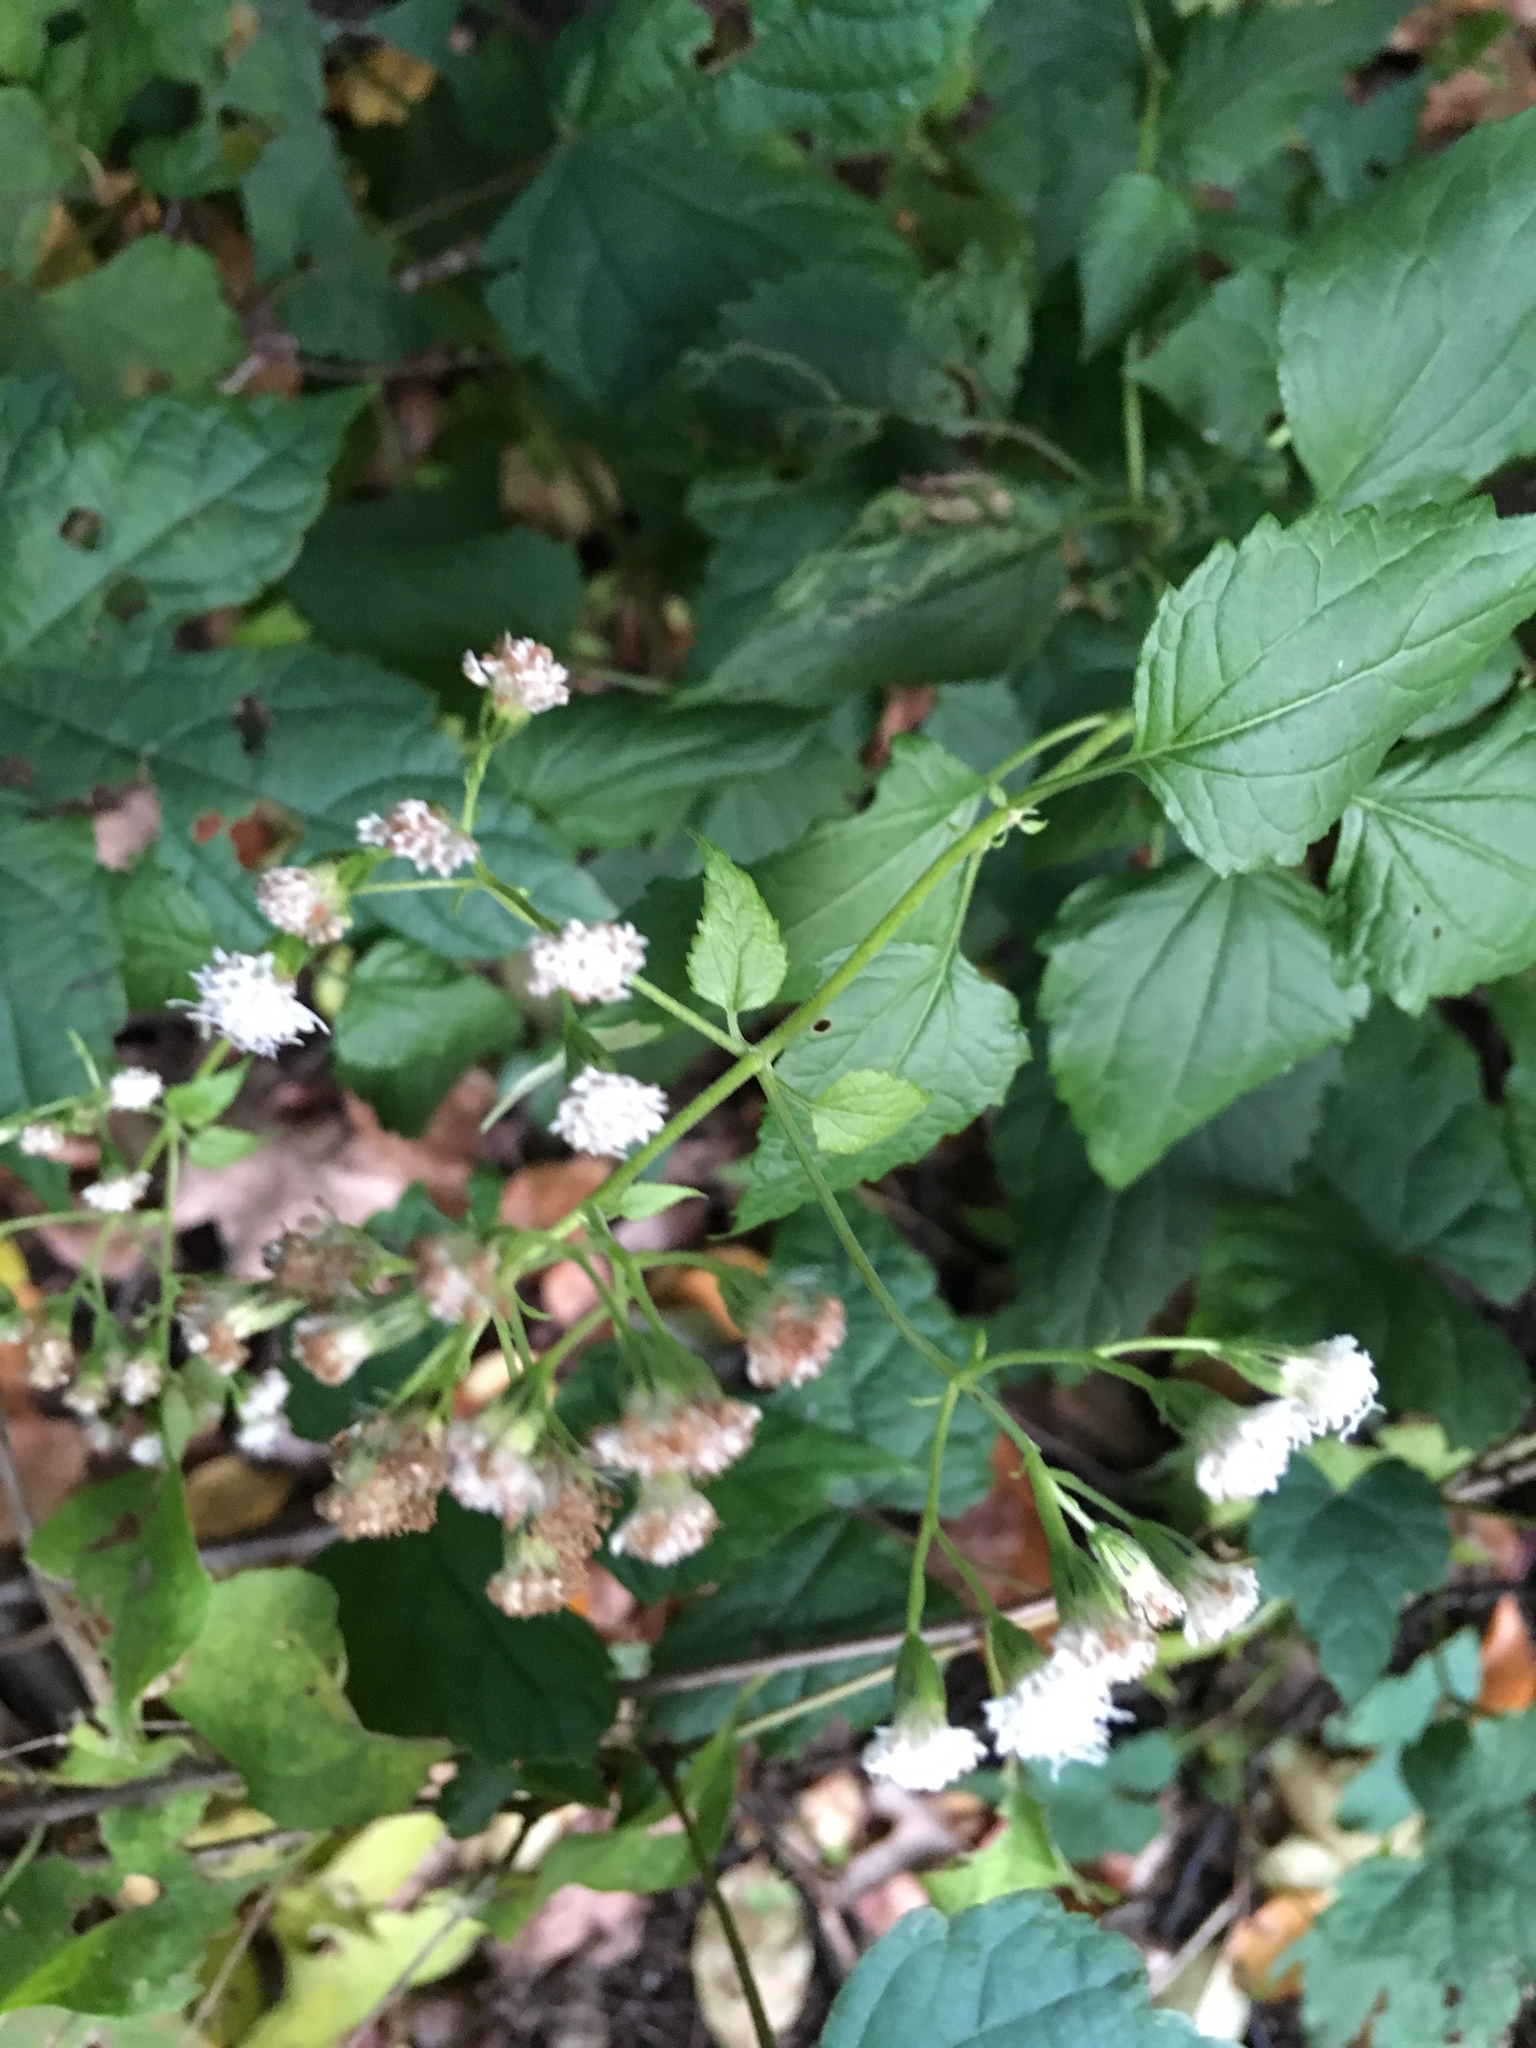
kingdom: Plantae
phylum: Tracheophyta
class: Magnoliopsida
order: Asterales
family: Asteraceae
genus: Ageratina
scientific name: Ageratina altissima
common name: White snakeroot
